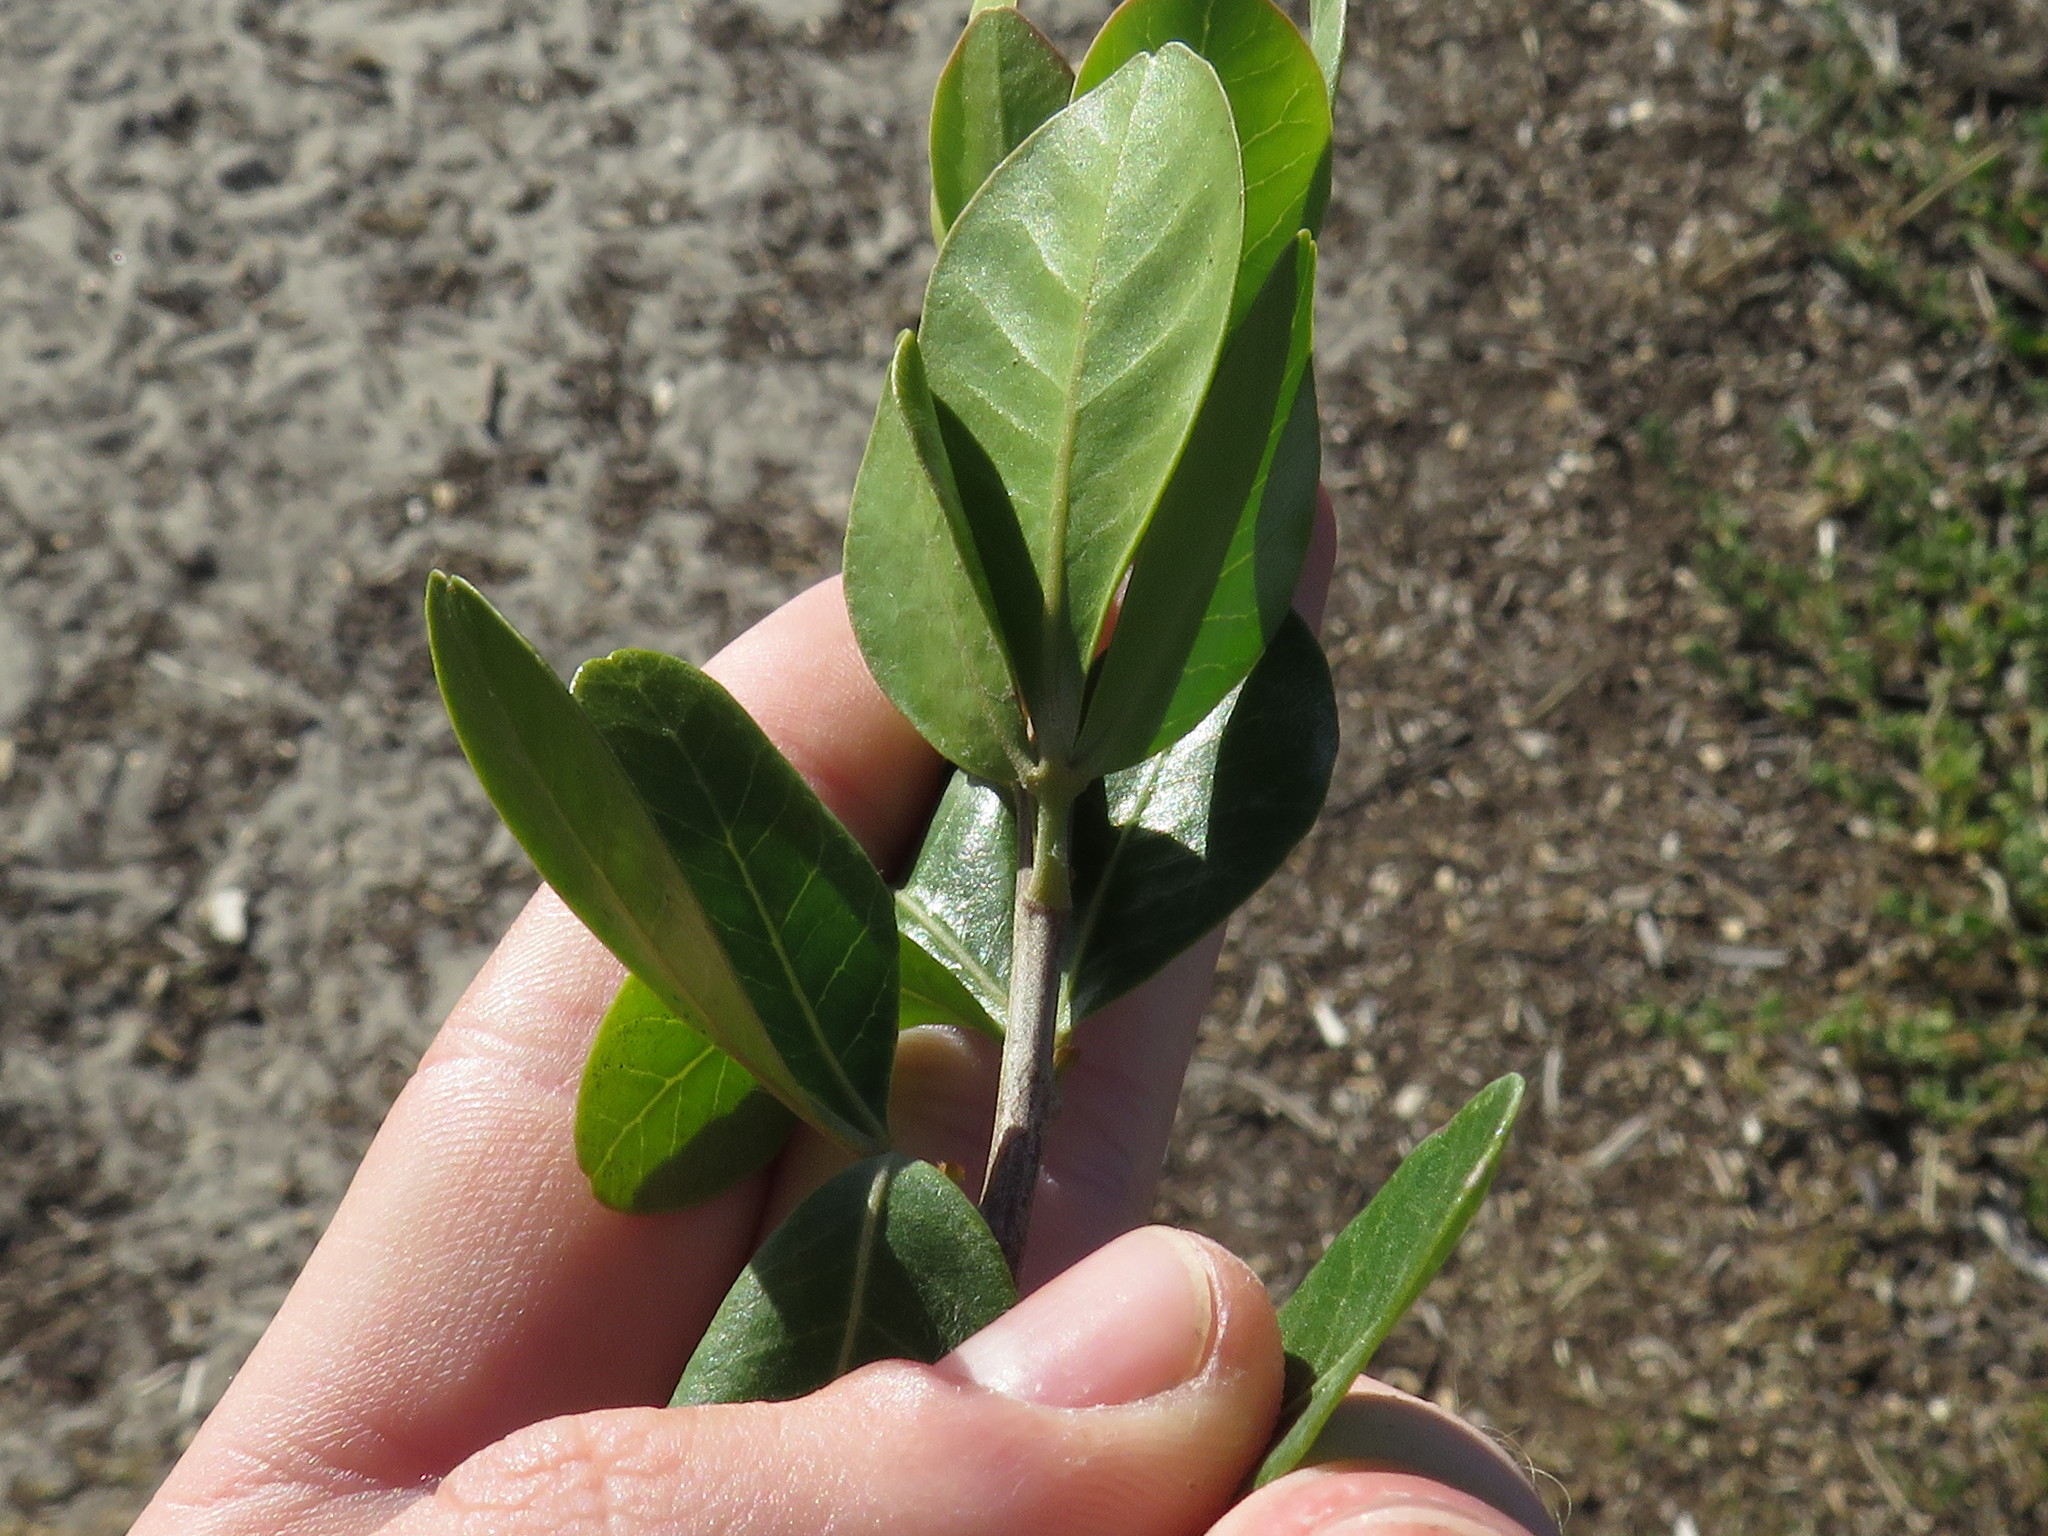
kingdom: Plantae
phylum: Tracheophyta
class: Magnoliopsida
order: Sapindales
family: Anacardiaceae
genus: Searsia
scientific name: Searsia lucida
